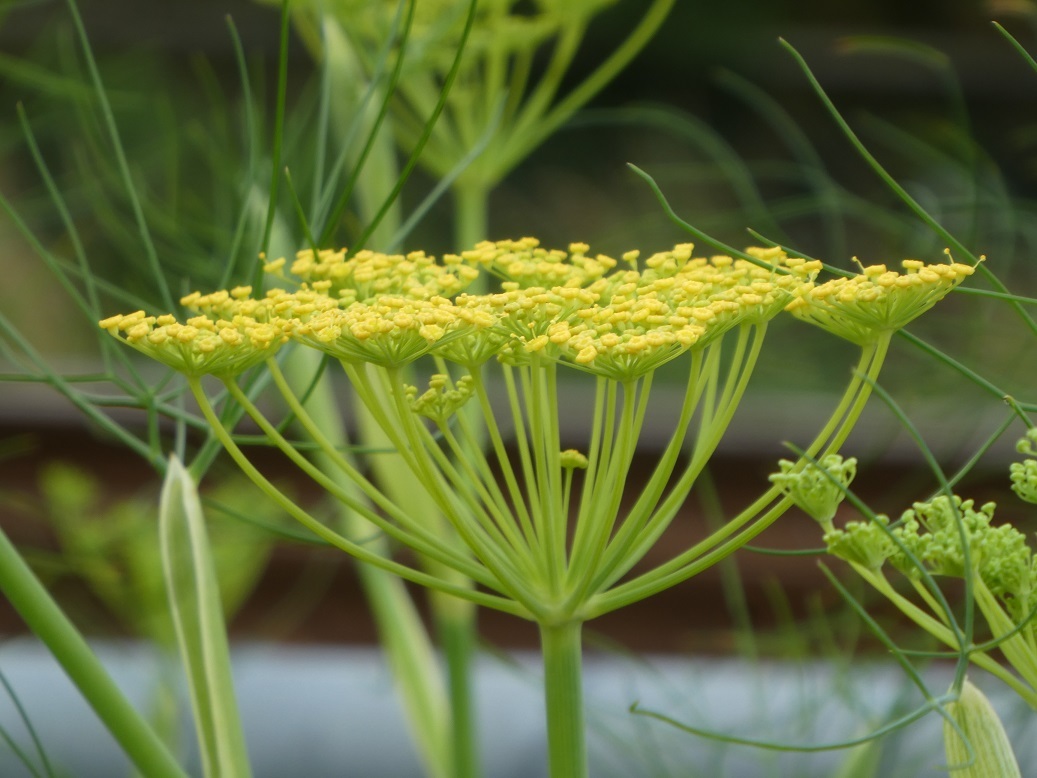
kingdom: Plantae
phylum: Tracheophyta
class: Magnoliopsida
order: Apiales
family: Apiaceae
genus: Foeniculum
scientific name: Foeniculum vulgare
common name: Fennel
